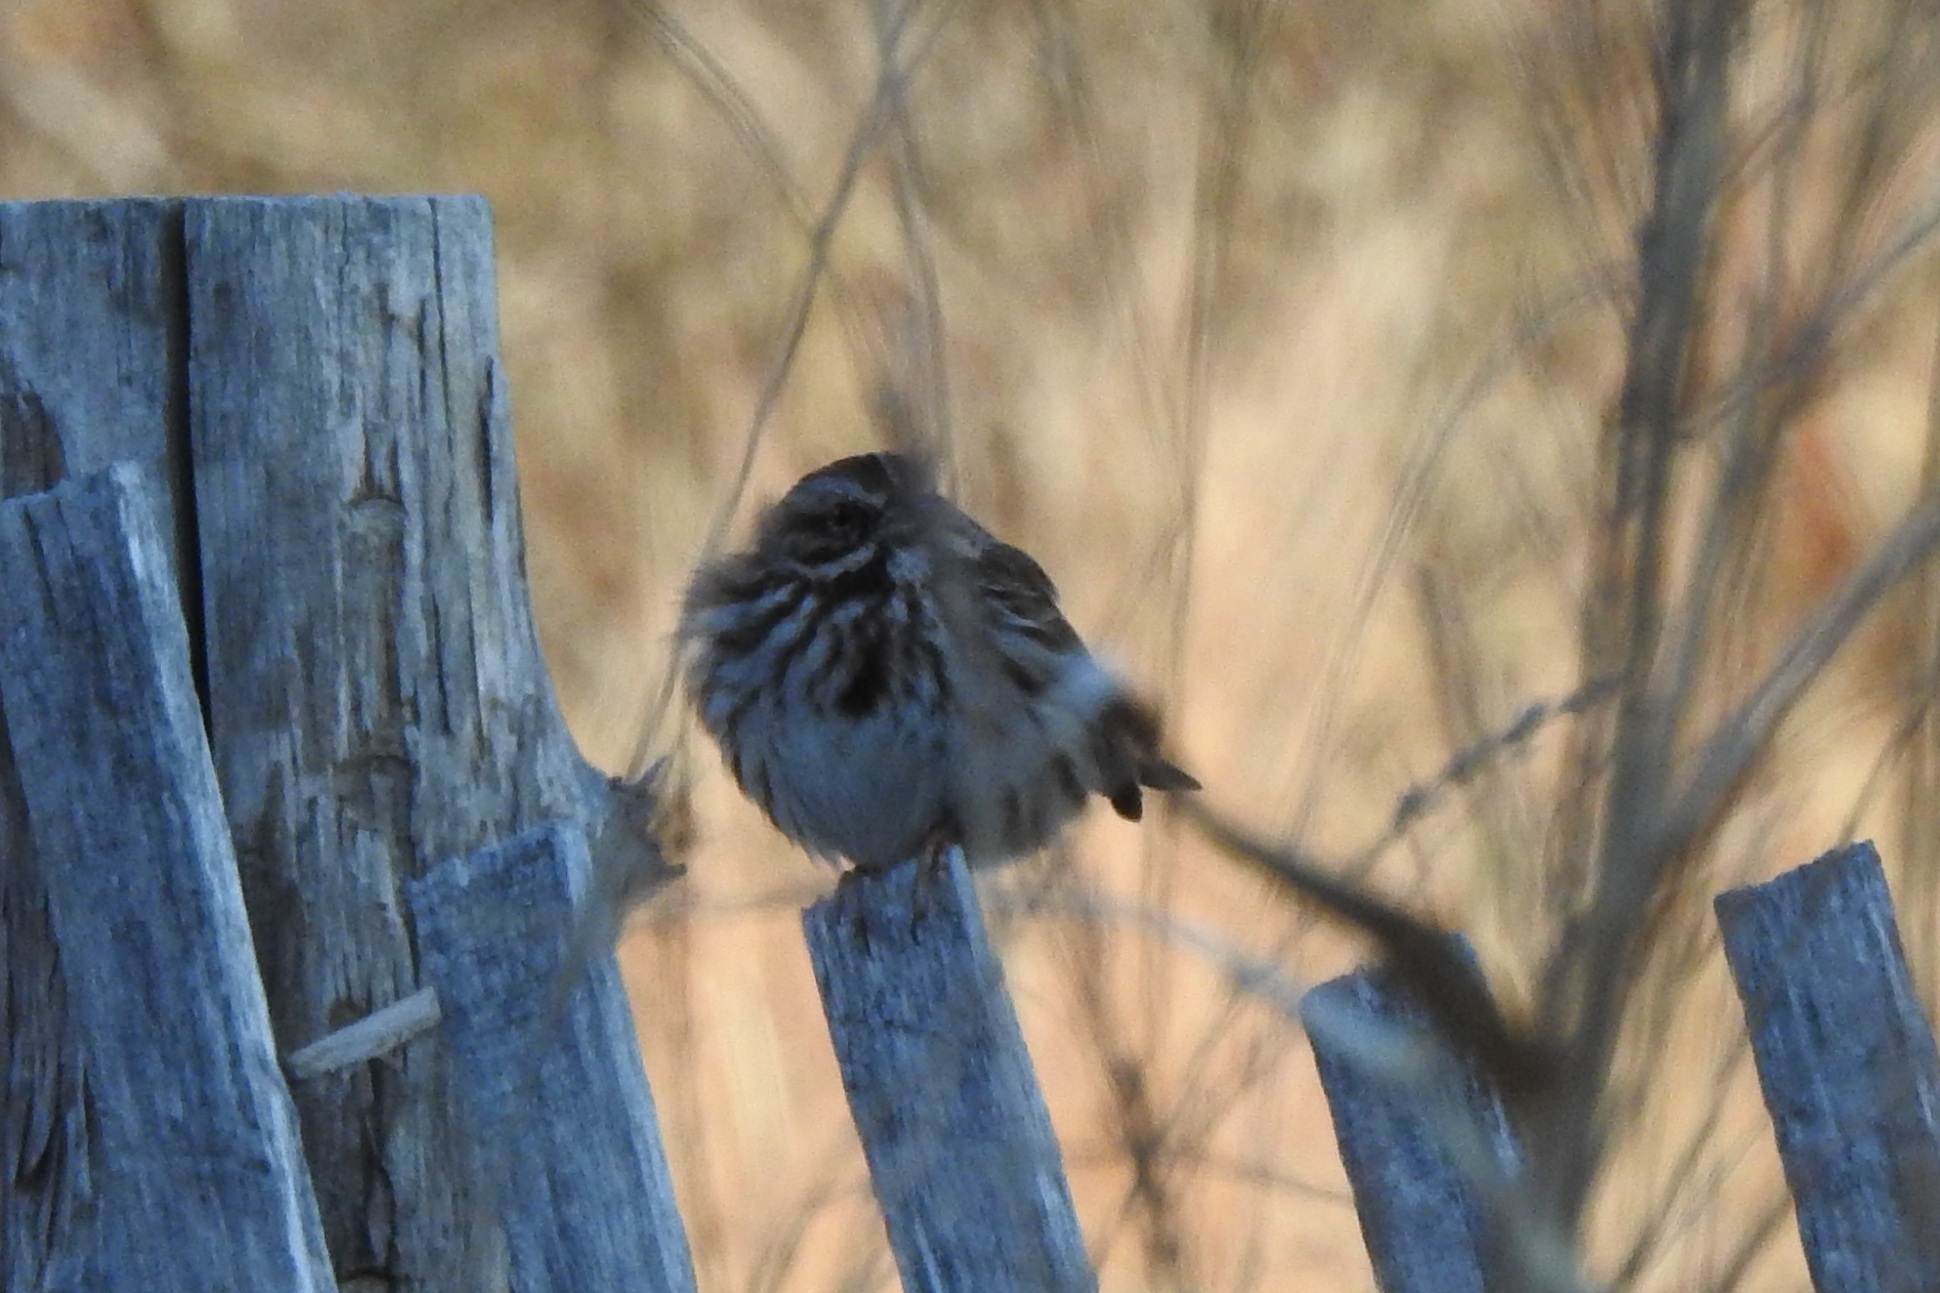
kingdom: Animalia
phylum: Chordata
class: Aves
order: Passeriformes
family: Passerellidae
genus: Melospiza
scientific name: Melospiza melodia
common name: Song sparrow
